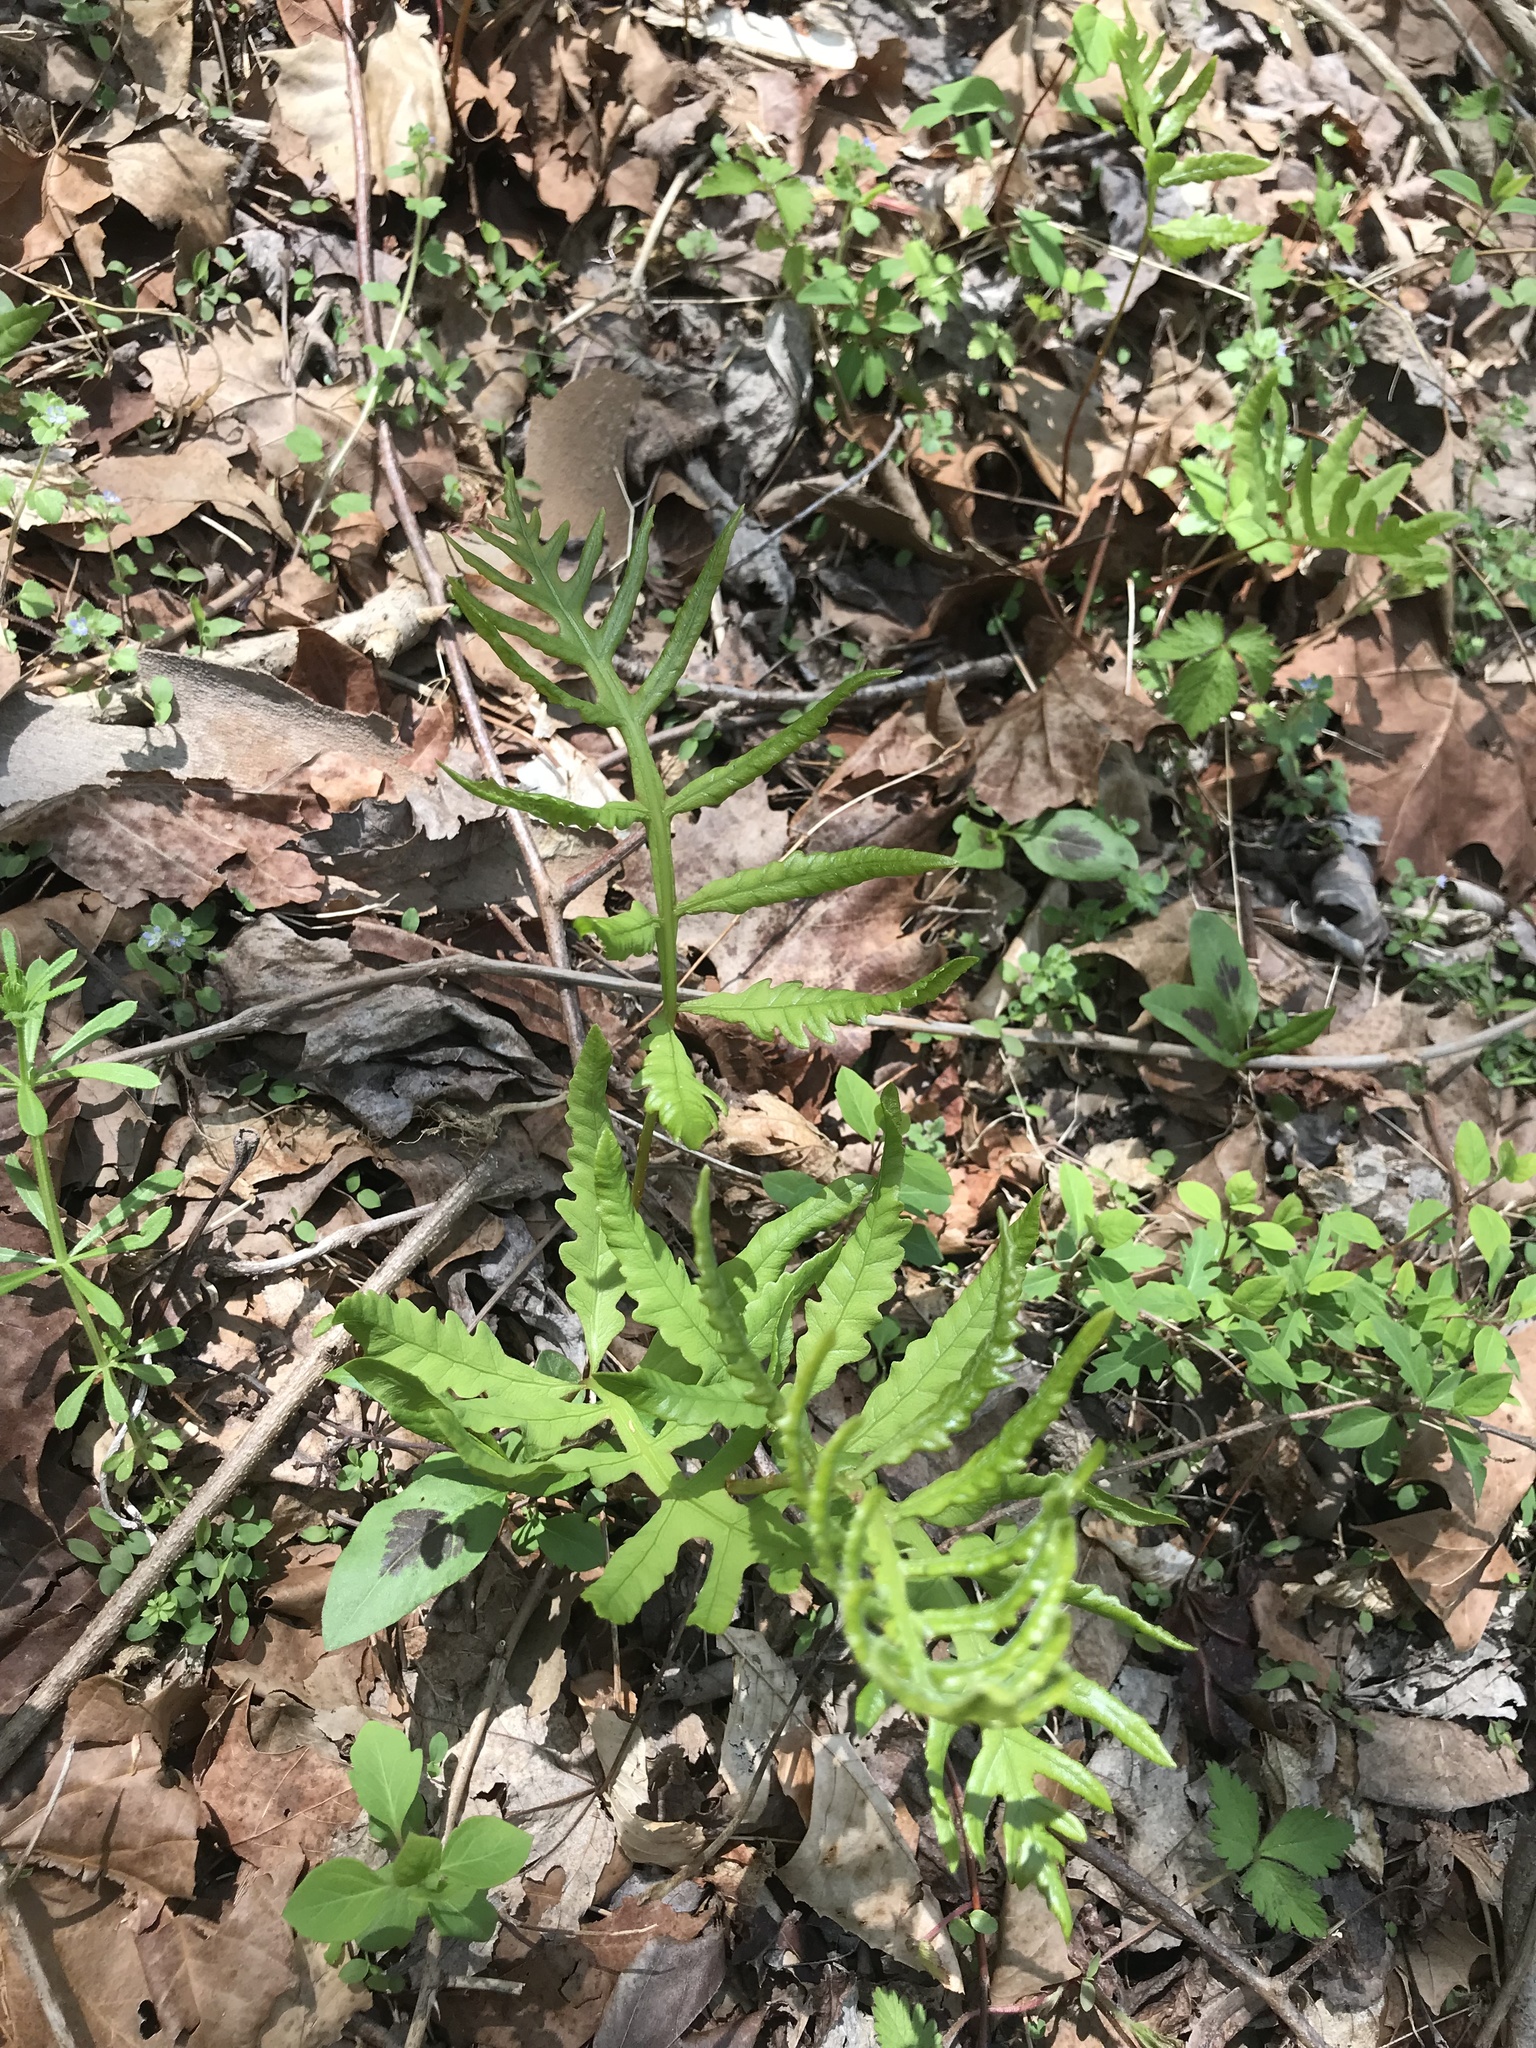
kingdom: Plantae
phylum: Tracheophyta
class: Polypodiopsida
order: Polypodiales
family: Onocleaceae
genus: Onoclea
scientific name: Onoclea sensibilis
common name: Sensitive fern
